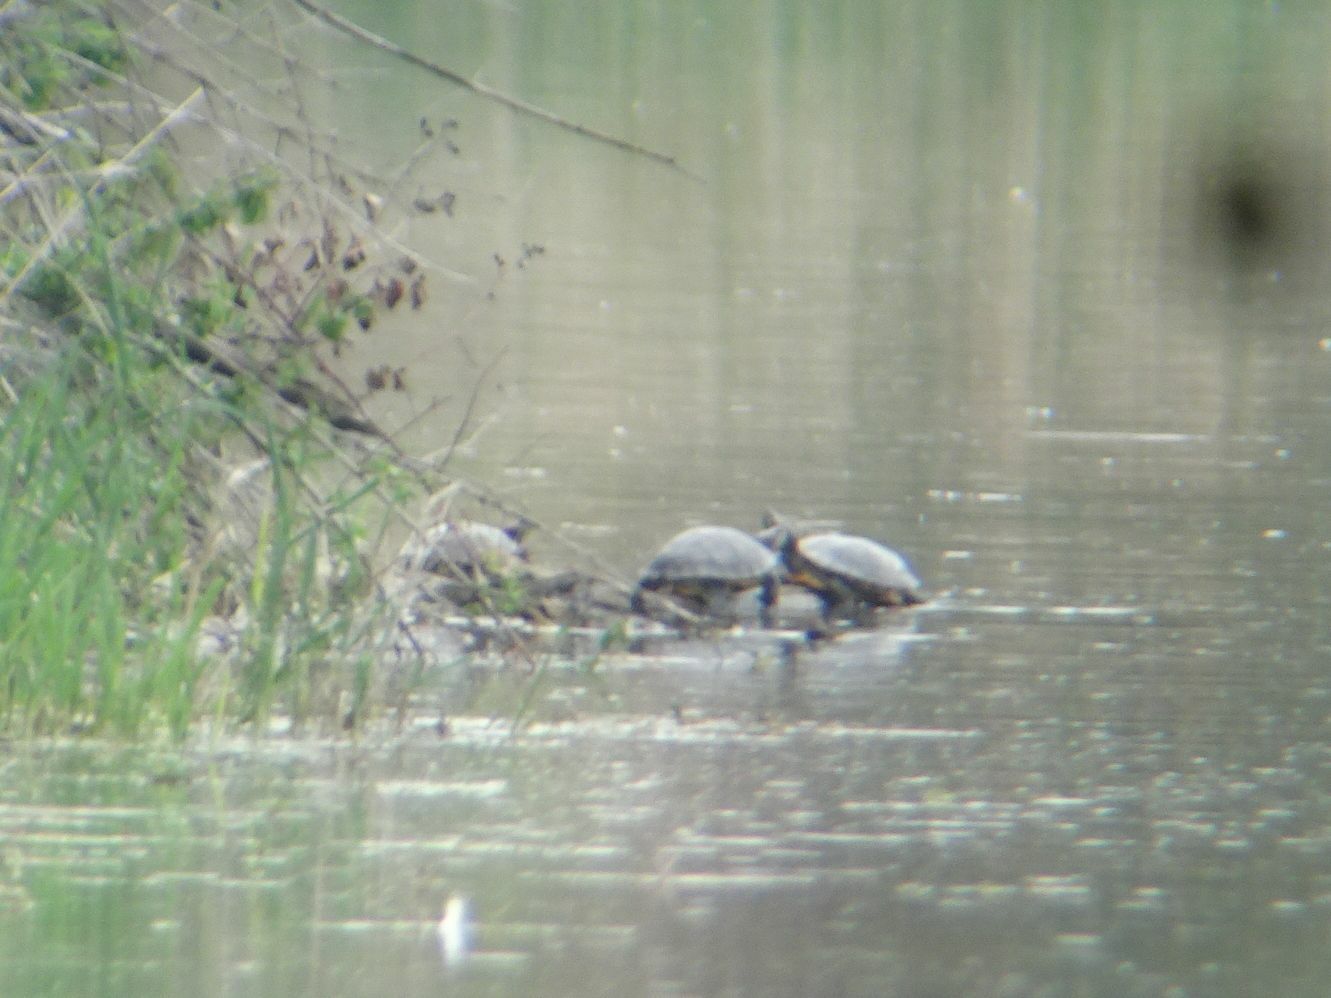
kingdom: Animalia
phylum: Chordata
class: Testudines
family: Emydidae
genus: Trachemys
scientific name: Trachemys scripta
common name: Slider
